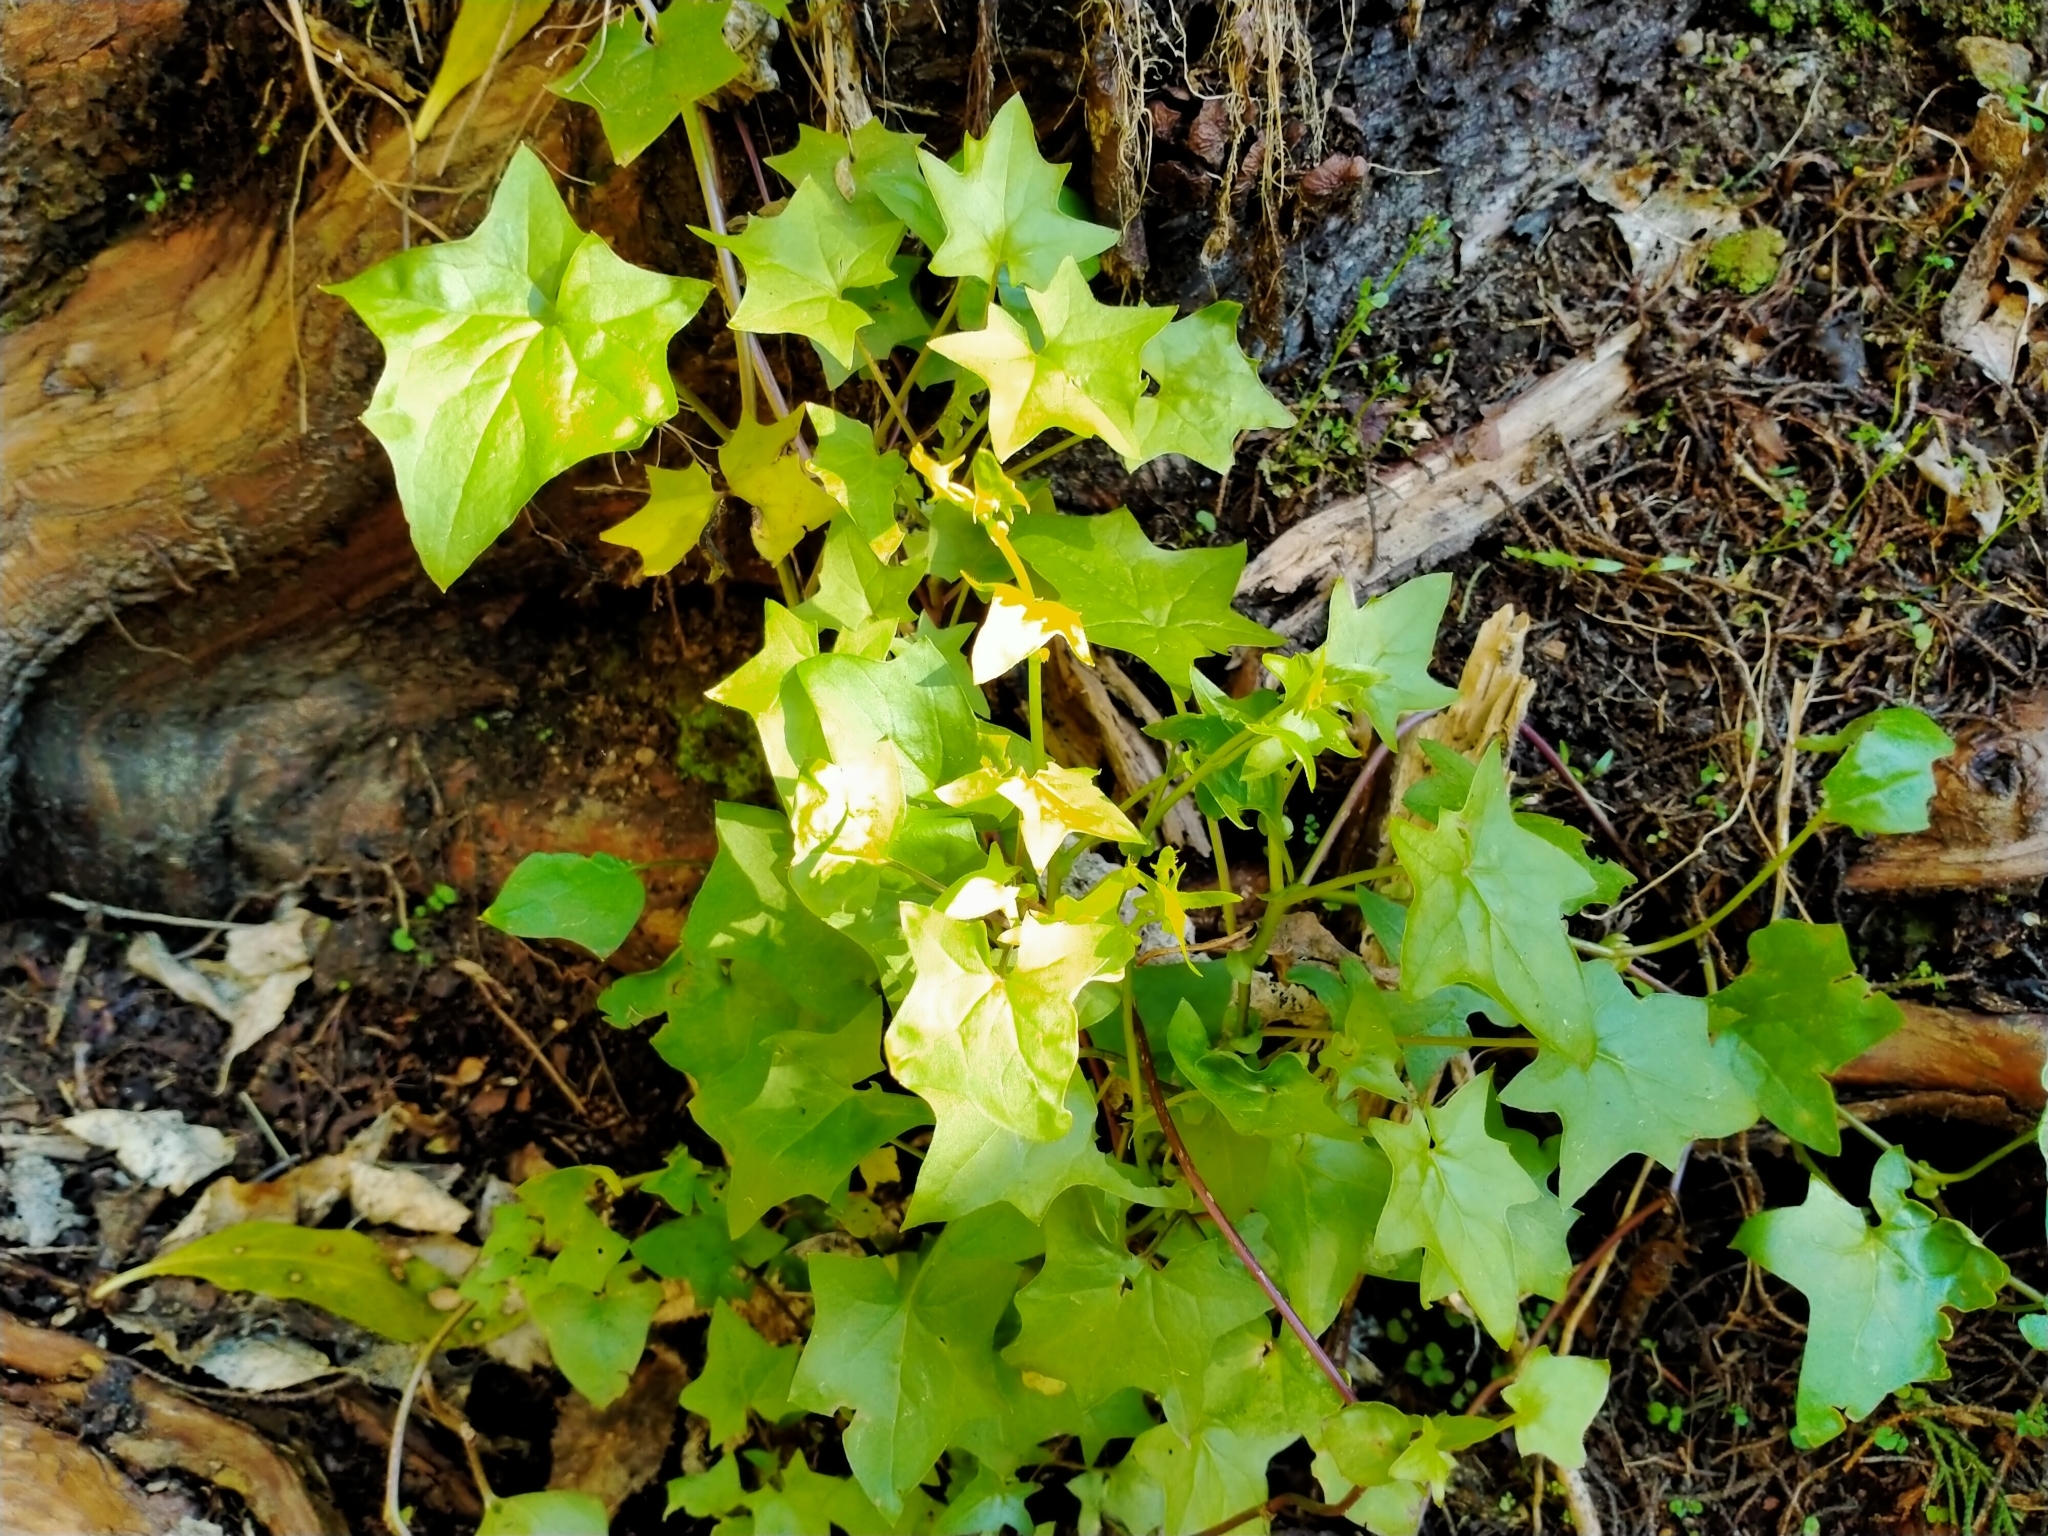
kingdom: Plantae
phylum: Tracheophyta
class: Magnoliopsida
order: Asterales
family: Asteraceae
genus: Delairea
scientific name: Delairea odorata
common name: Cape-ivy
